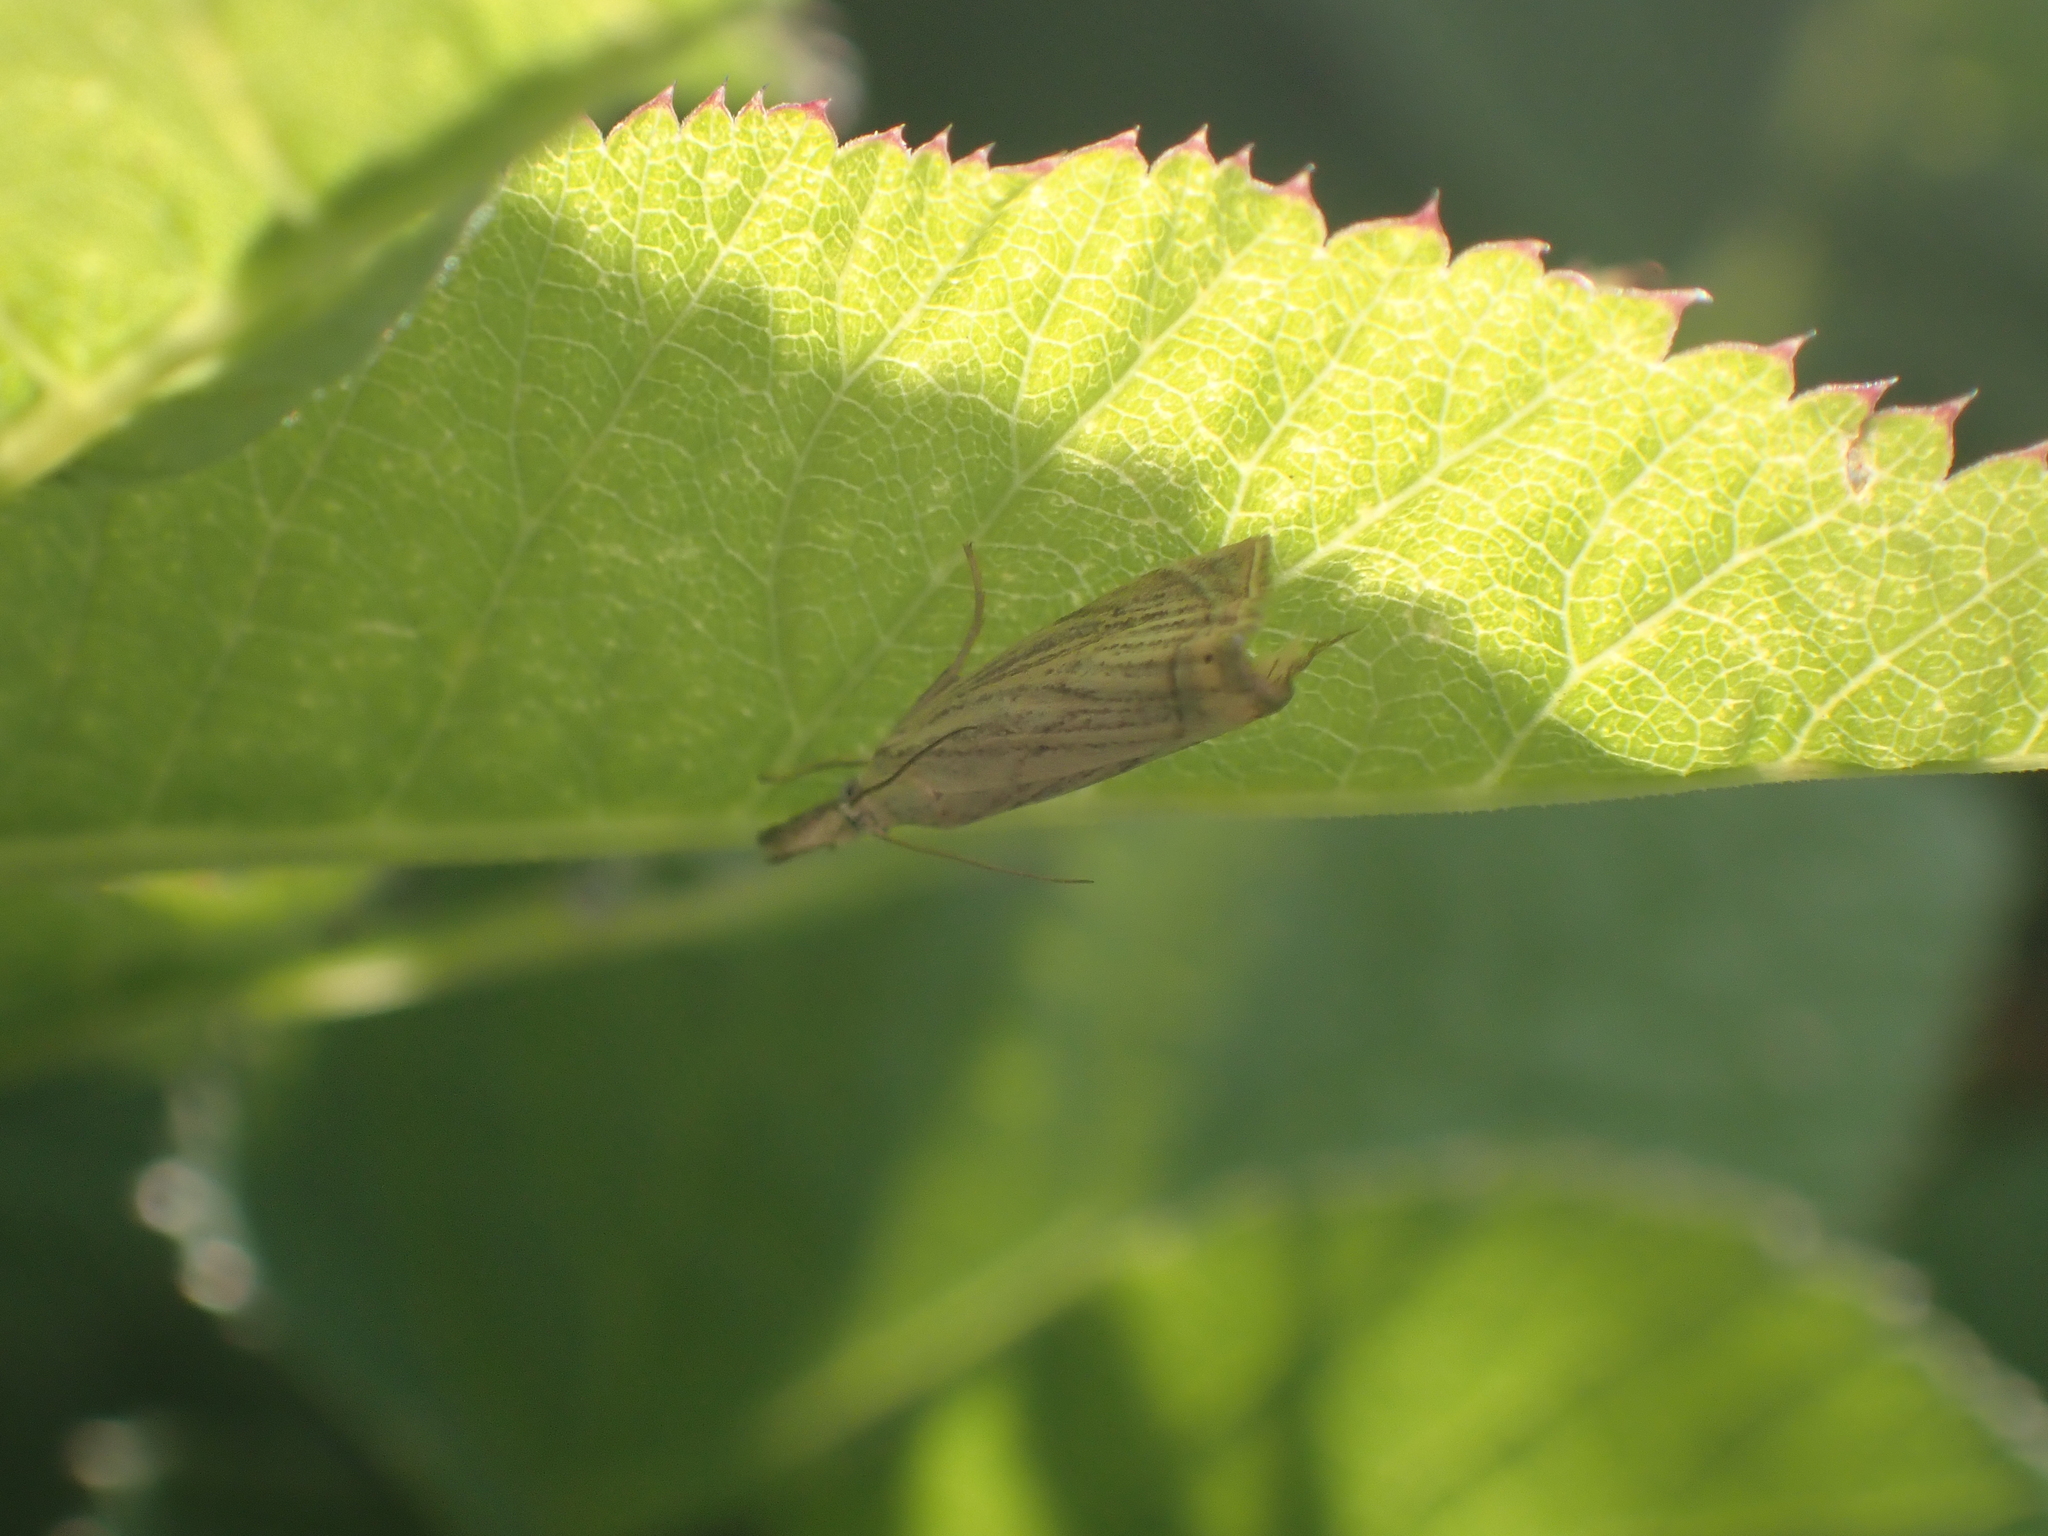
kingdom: Animalia
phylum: Arthropoda
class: Insecta
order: Lepidoptera
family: Crambidae
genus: Chrysoteuchia
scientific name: Chrysoteuchia culmella
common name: Garden grass-veneer
